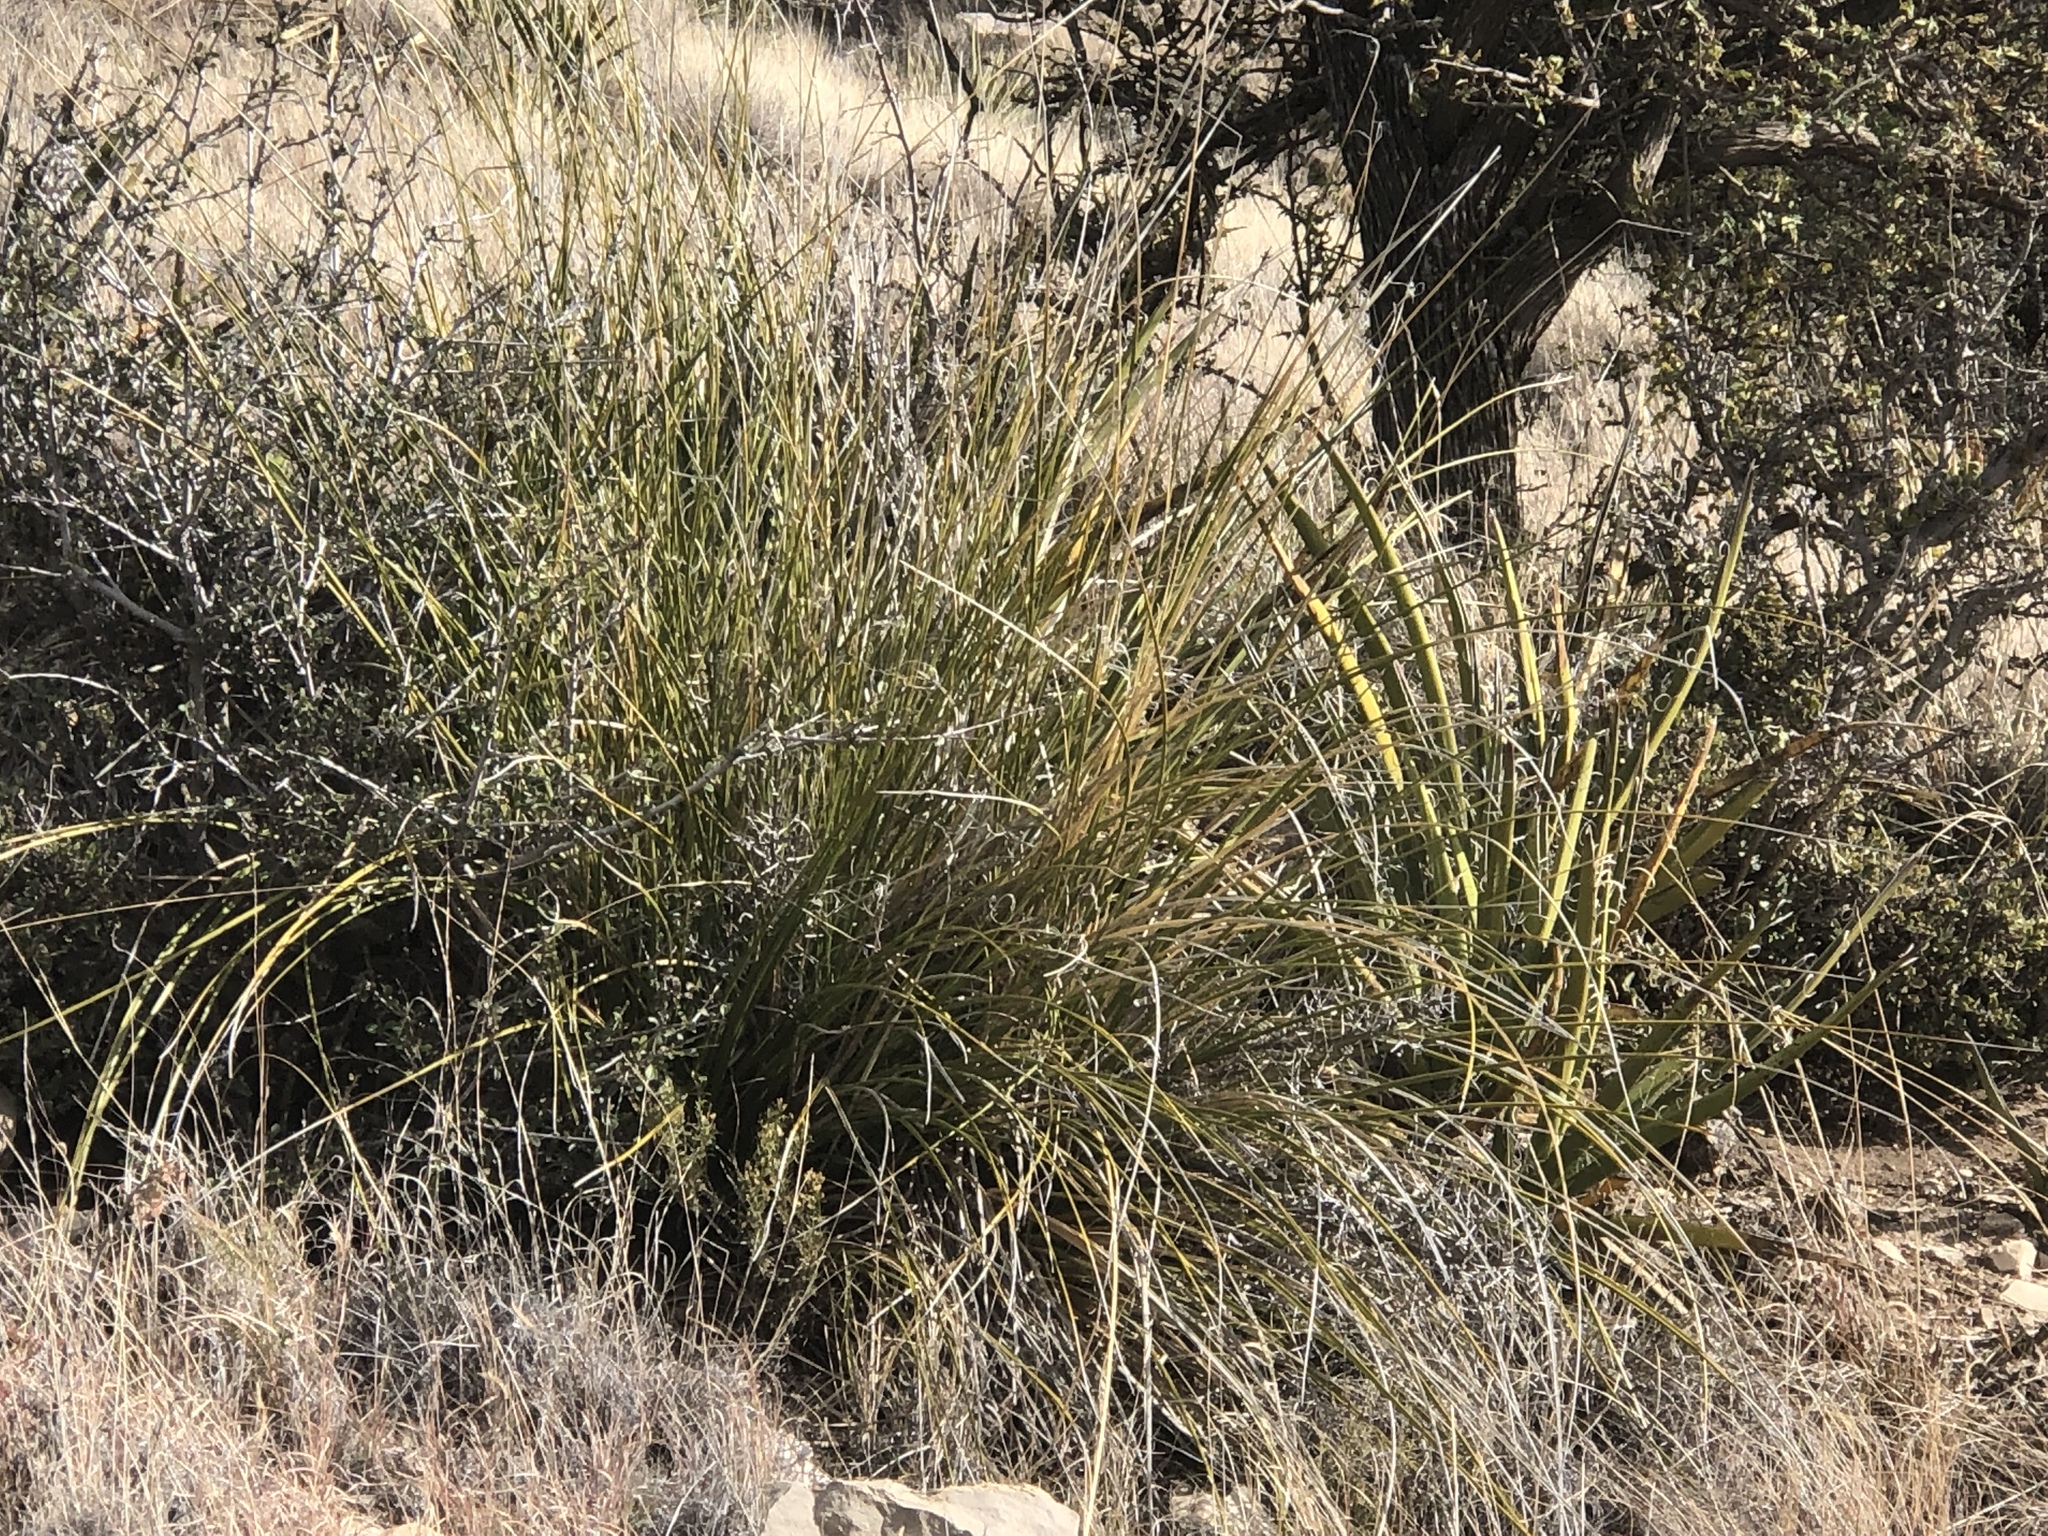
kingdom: Plantae
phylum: Tracheophyta
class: Liliopsida
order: Asparagales
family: Asparagaceae
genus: Nolina
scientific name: Nolina microcarpa
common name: Bear-grass
